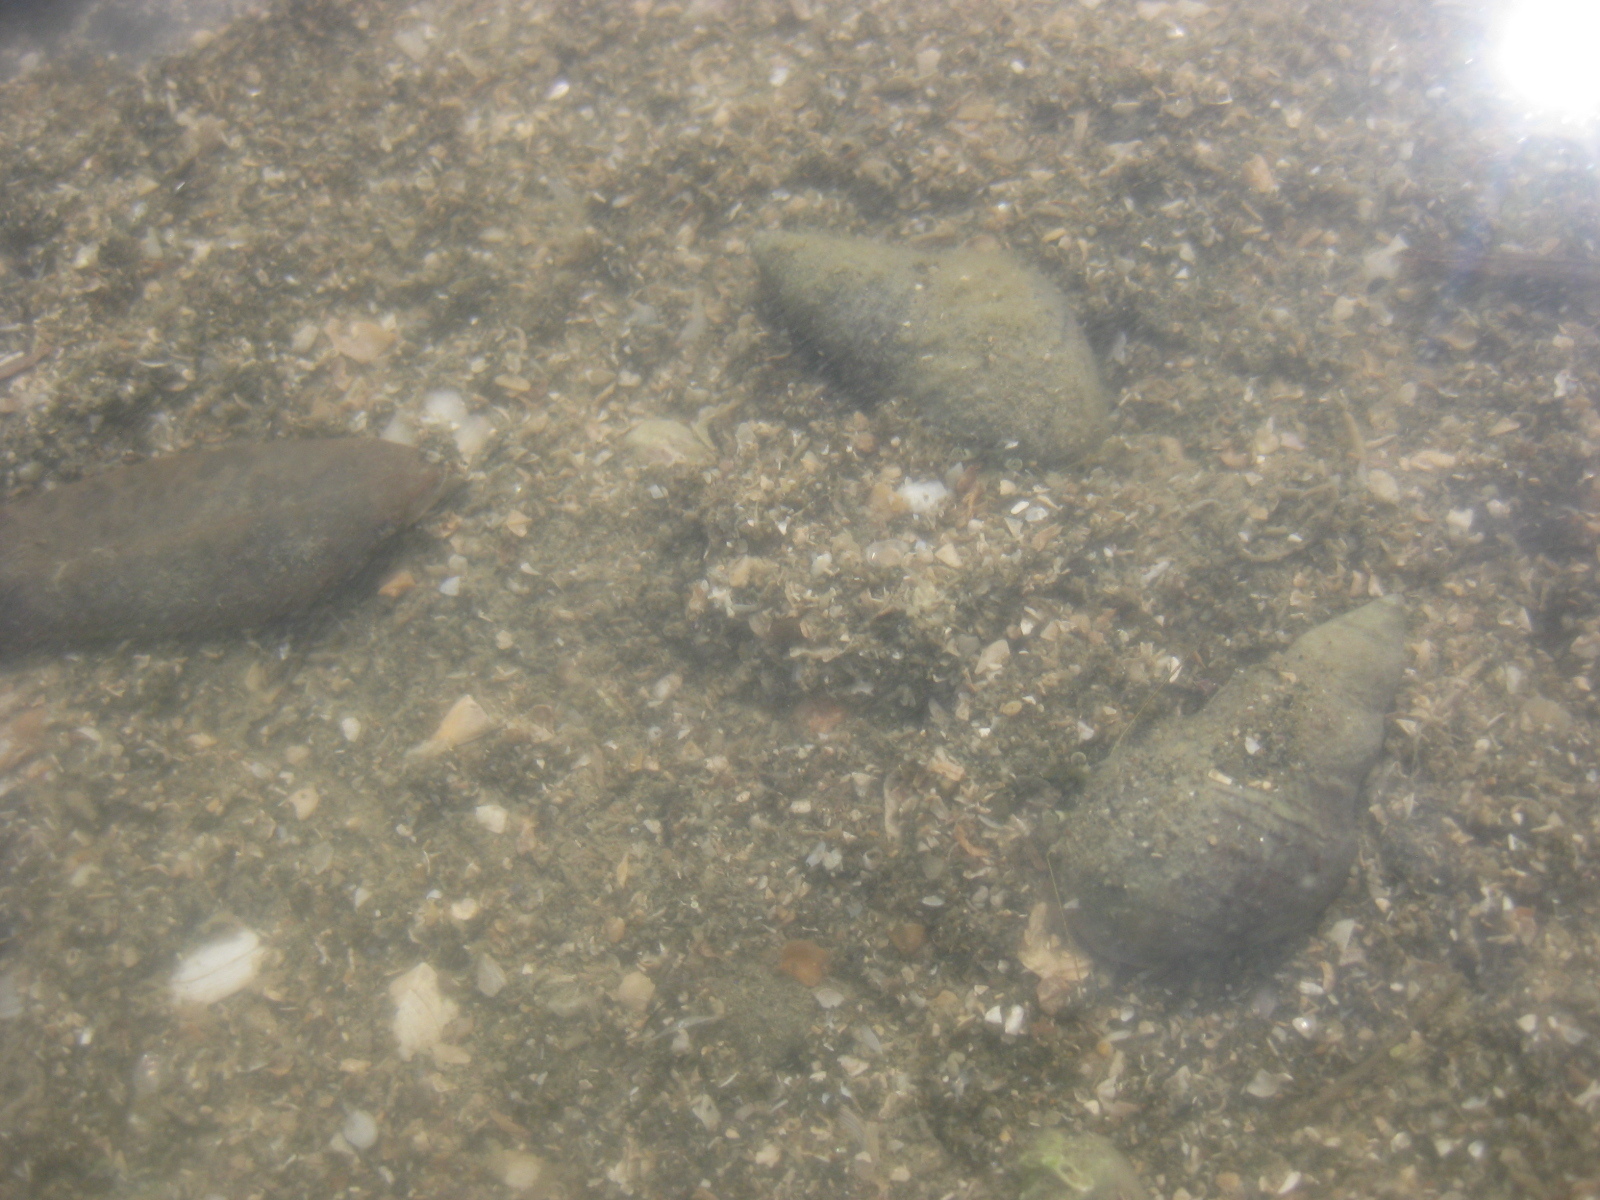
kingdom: Animalia
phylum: Arthropoda
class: Malacostraca
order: Decapoda
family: Paguridae
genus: Pagurus
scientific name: Pagurus novizealandiae
